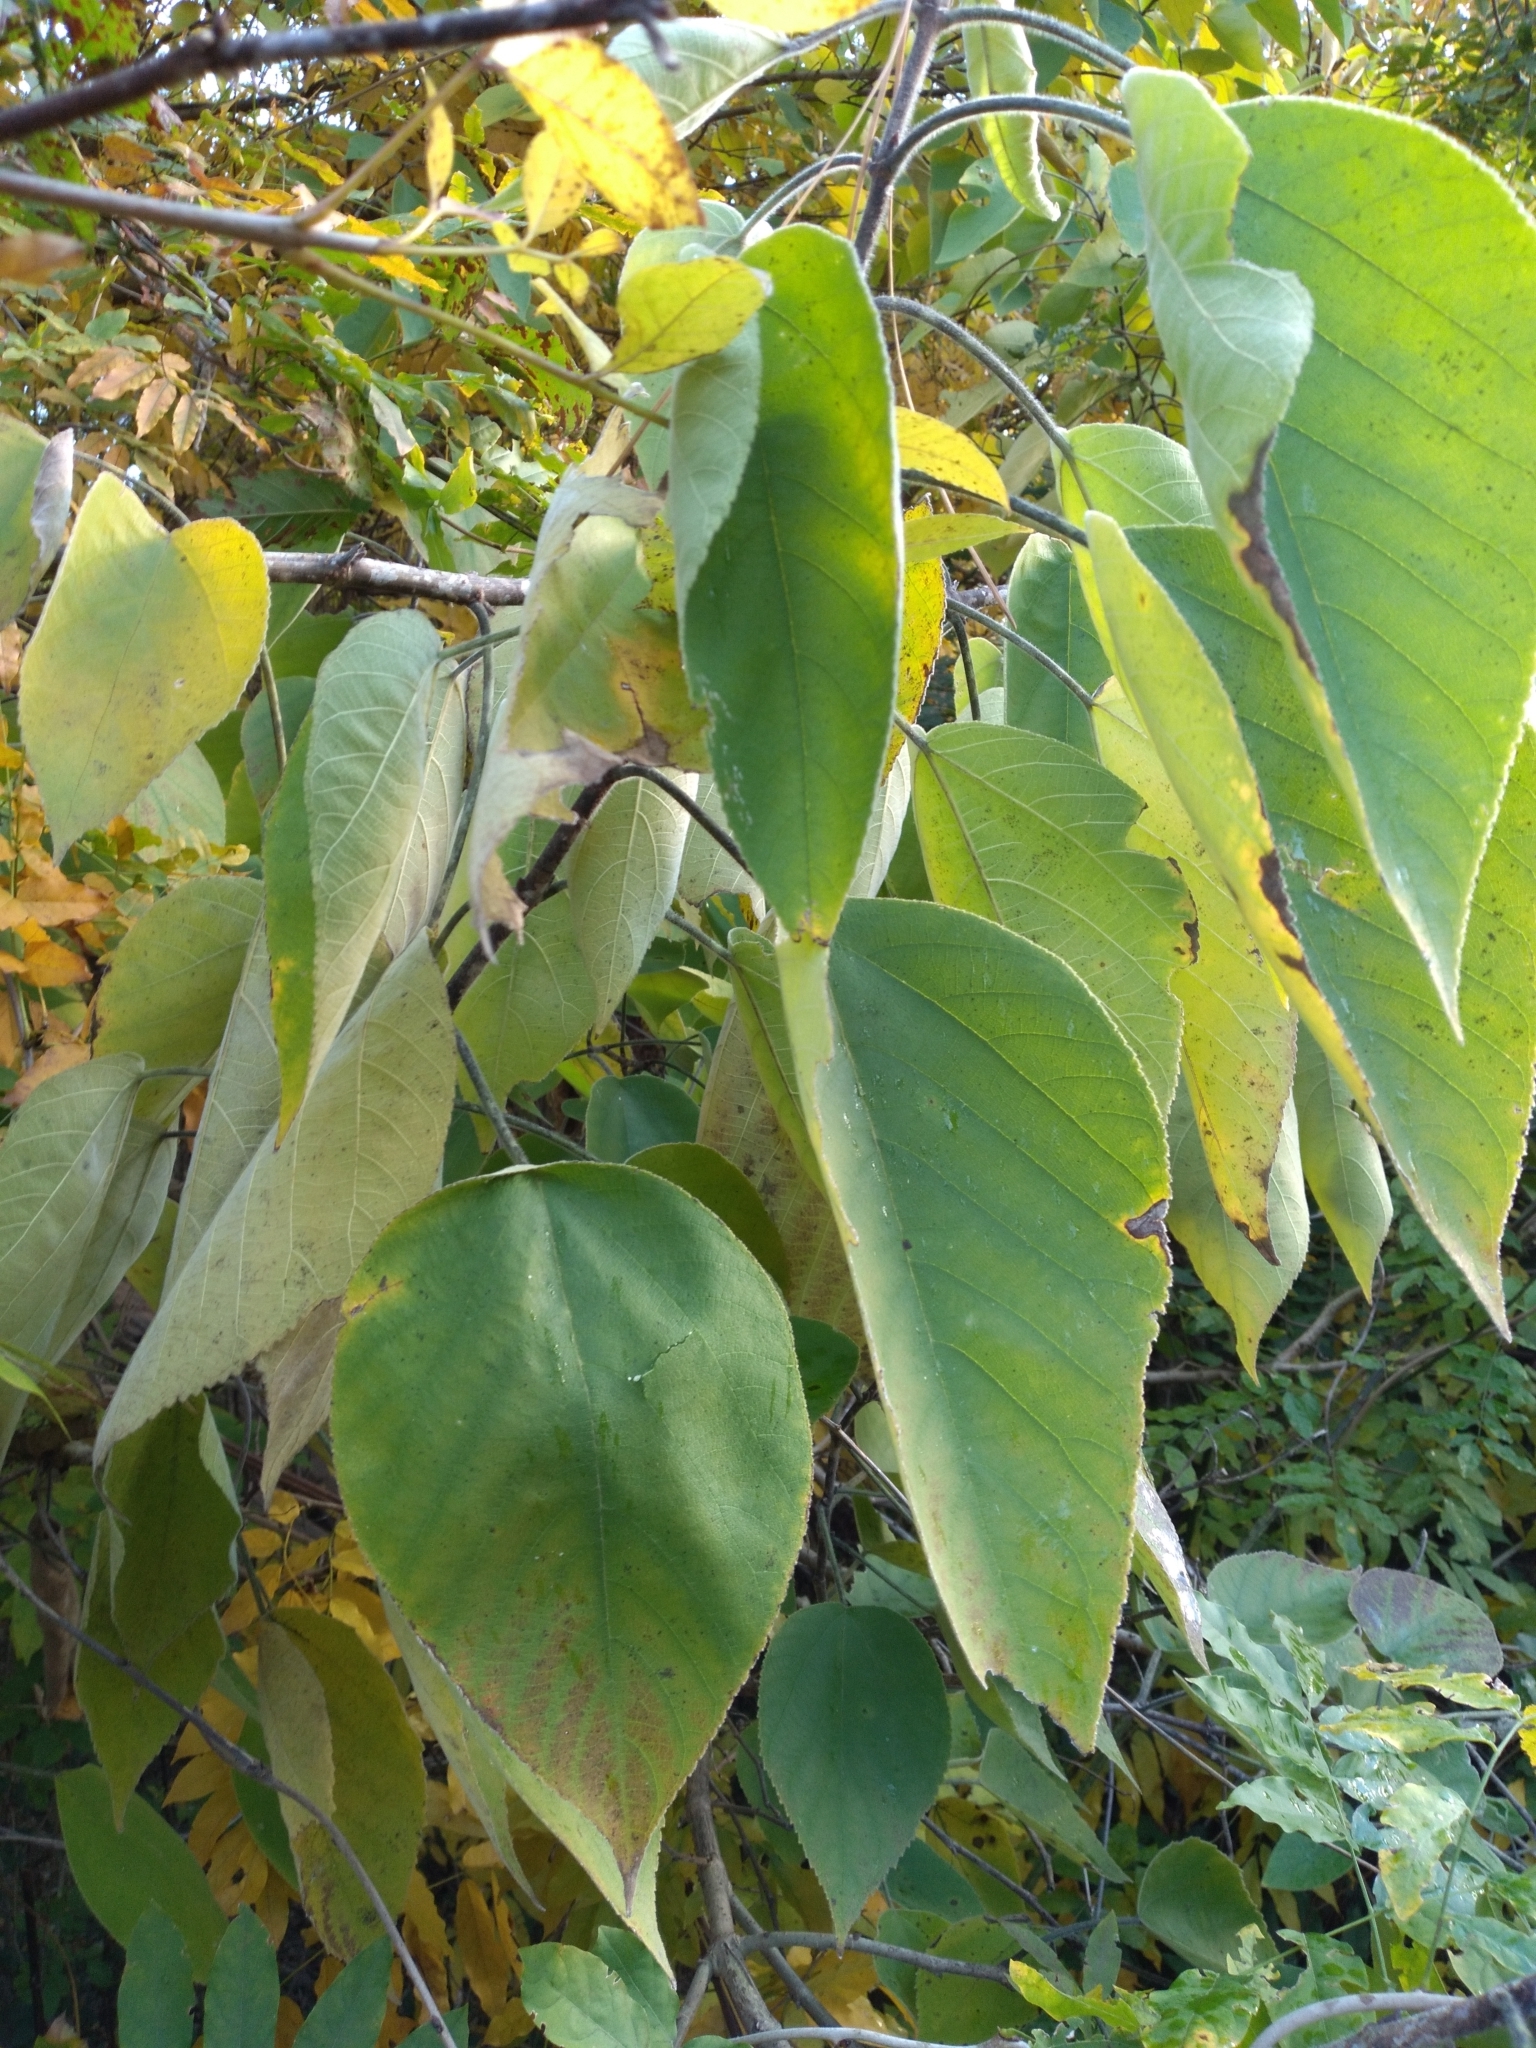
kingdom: Plantae
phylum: Tracheophyta
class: Magnoliopsida
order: Rosales
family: Moraceae
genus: Broussonetia
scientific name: Broussonetia papyrifera
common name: Paper mulberry
